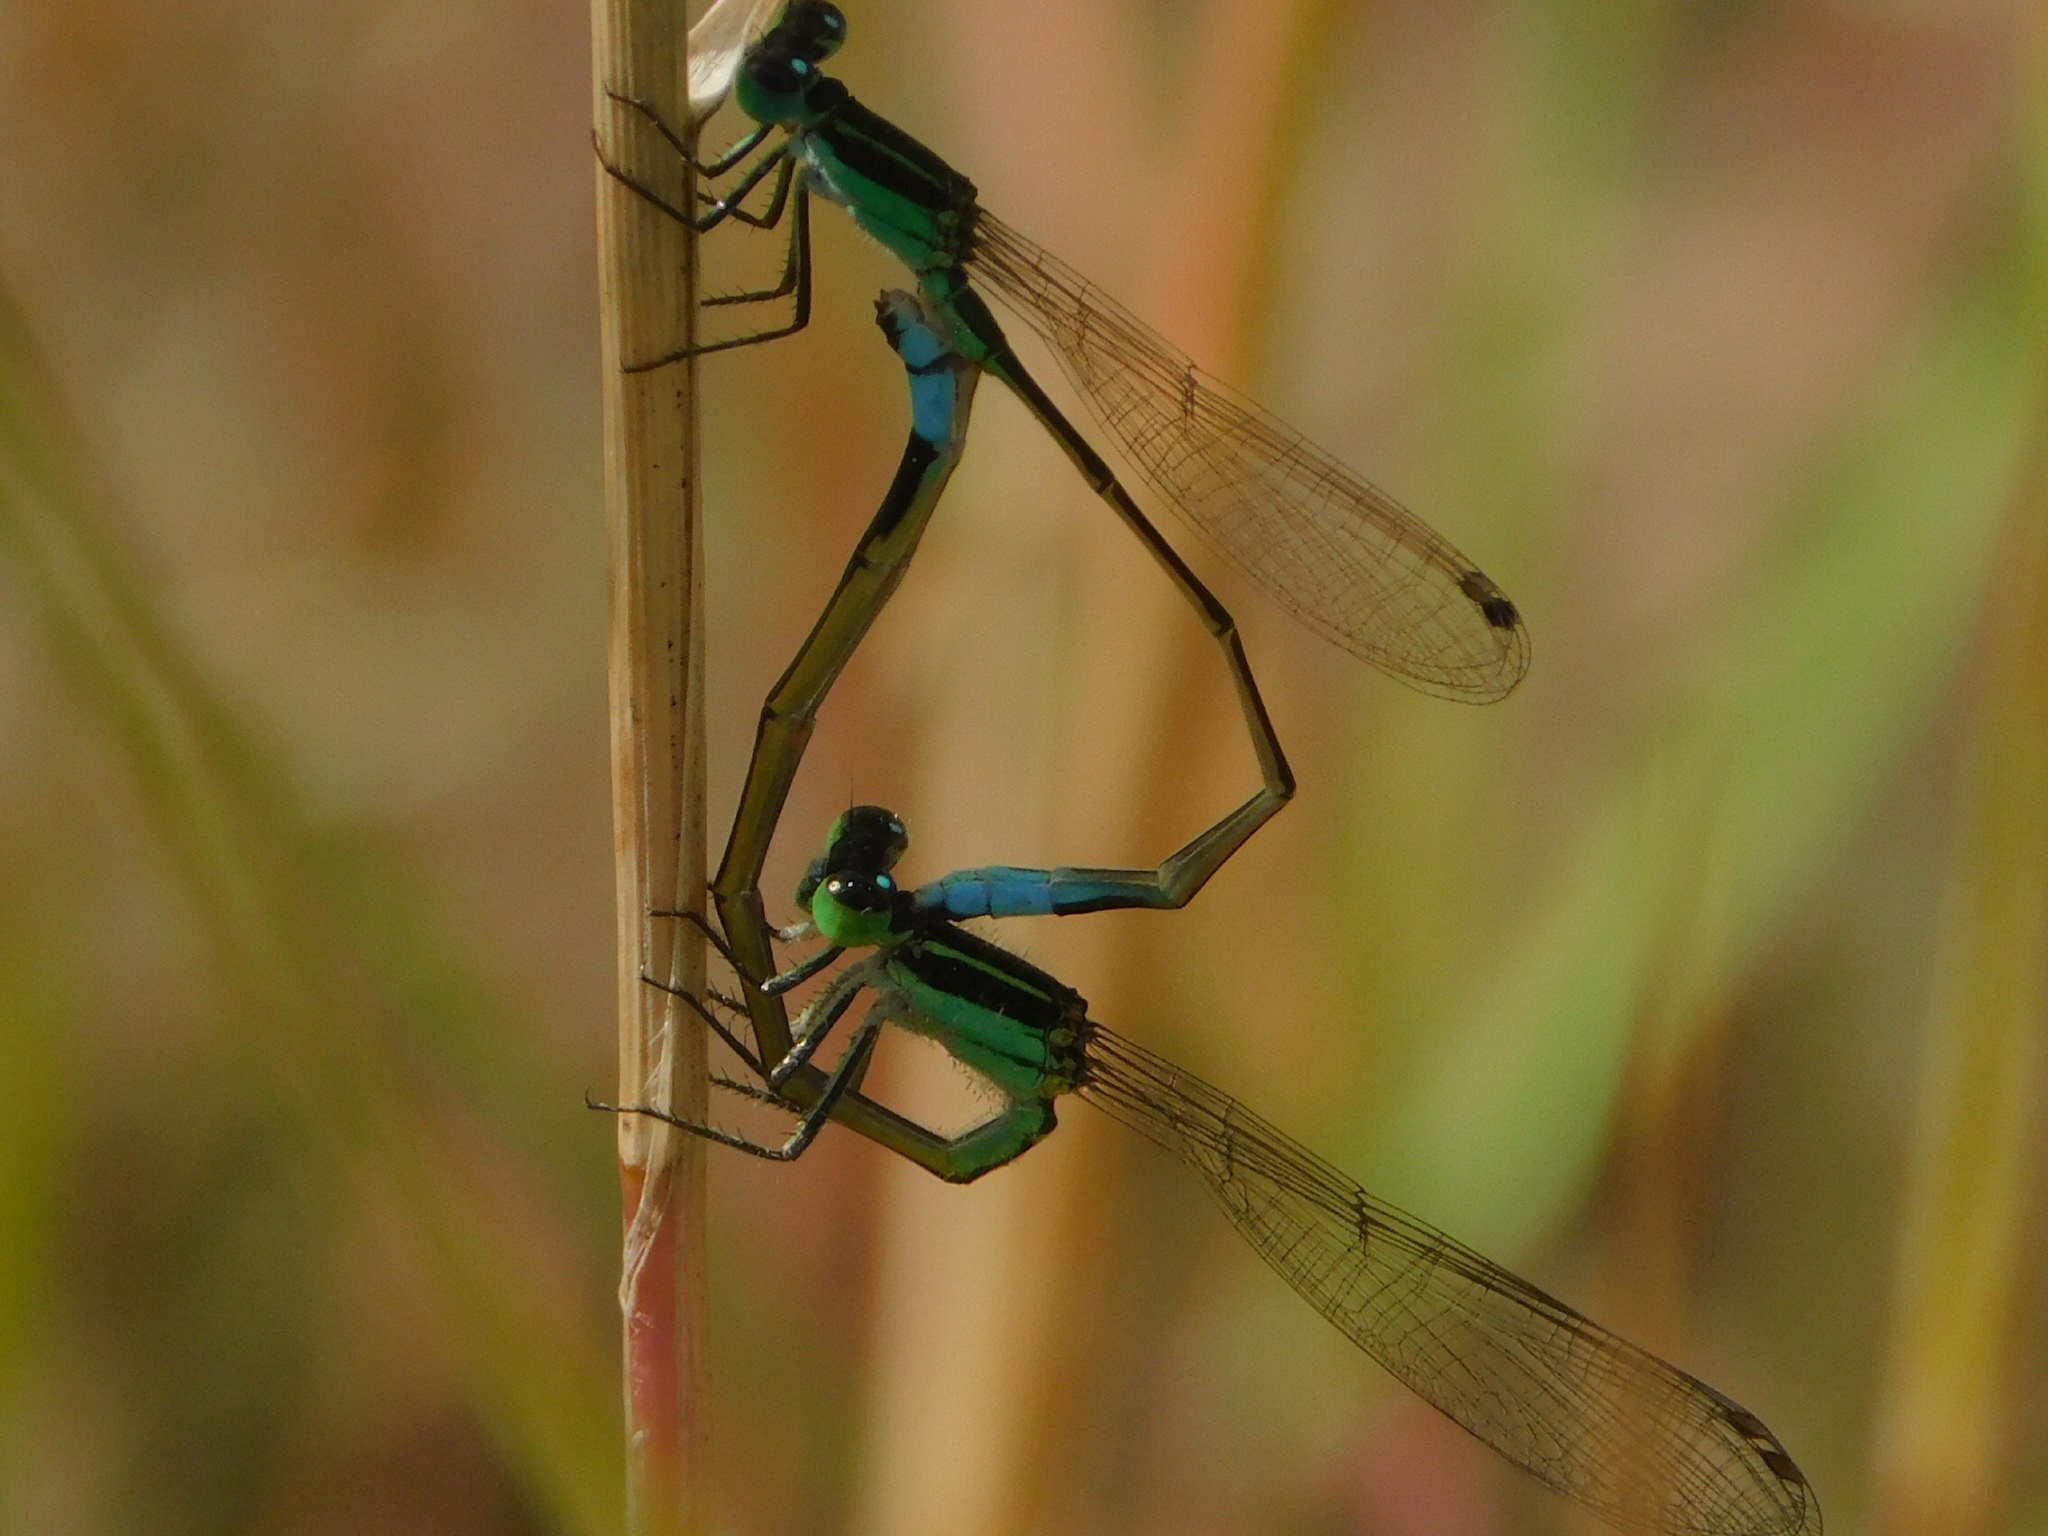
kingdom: Animalia
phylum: Arthropoda
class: Insecta
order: Odonata
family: Coenagrionidae
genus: Ischnura
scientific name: Ischnura ramburii
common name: Rambur's forktail
